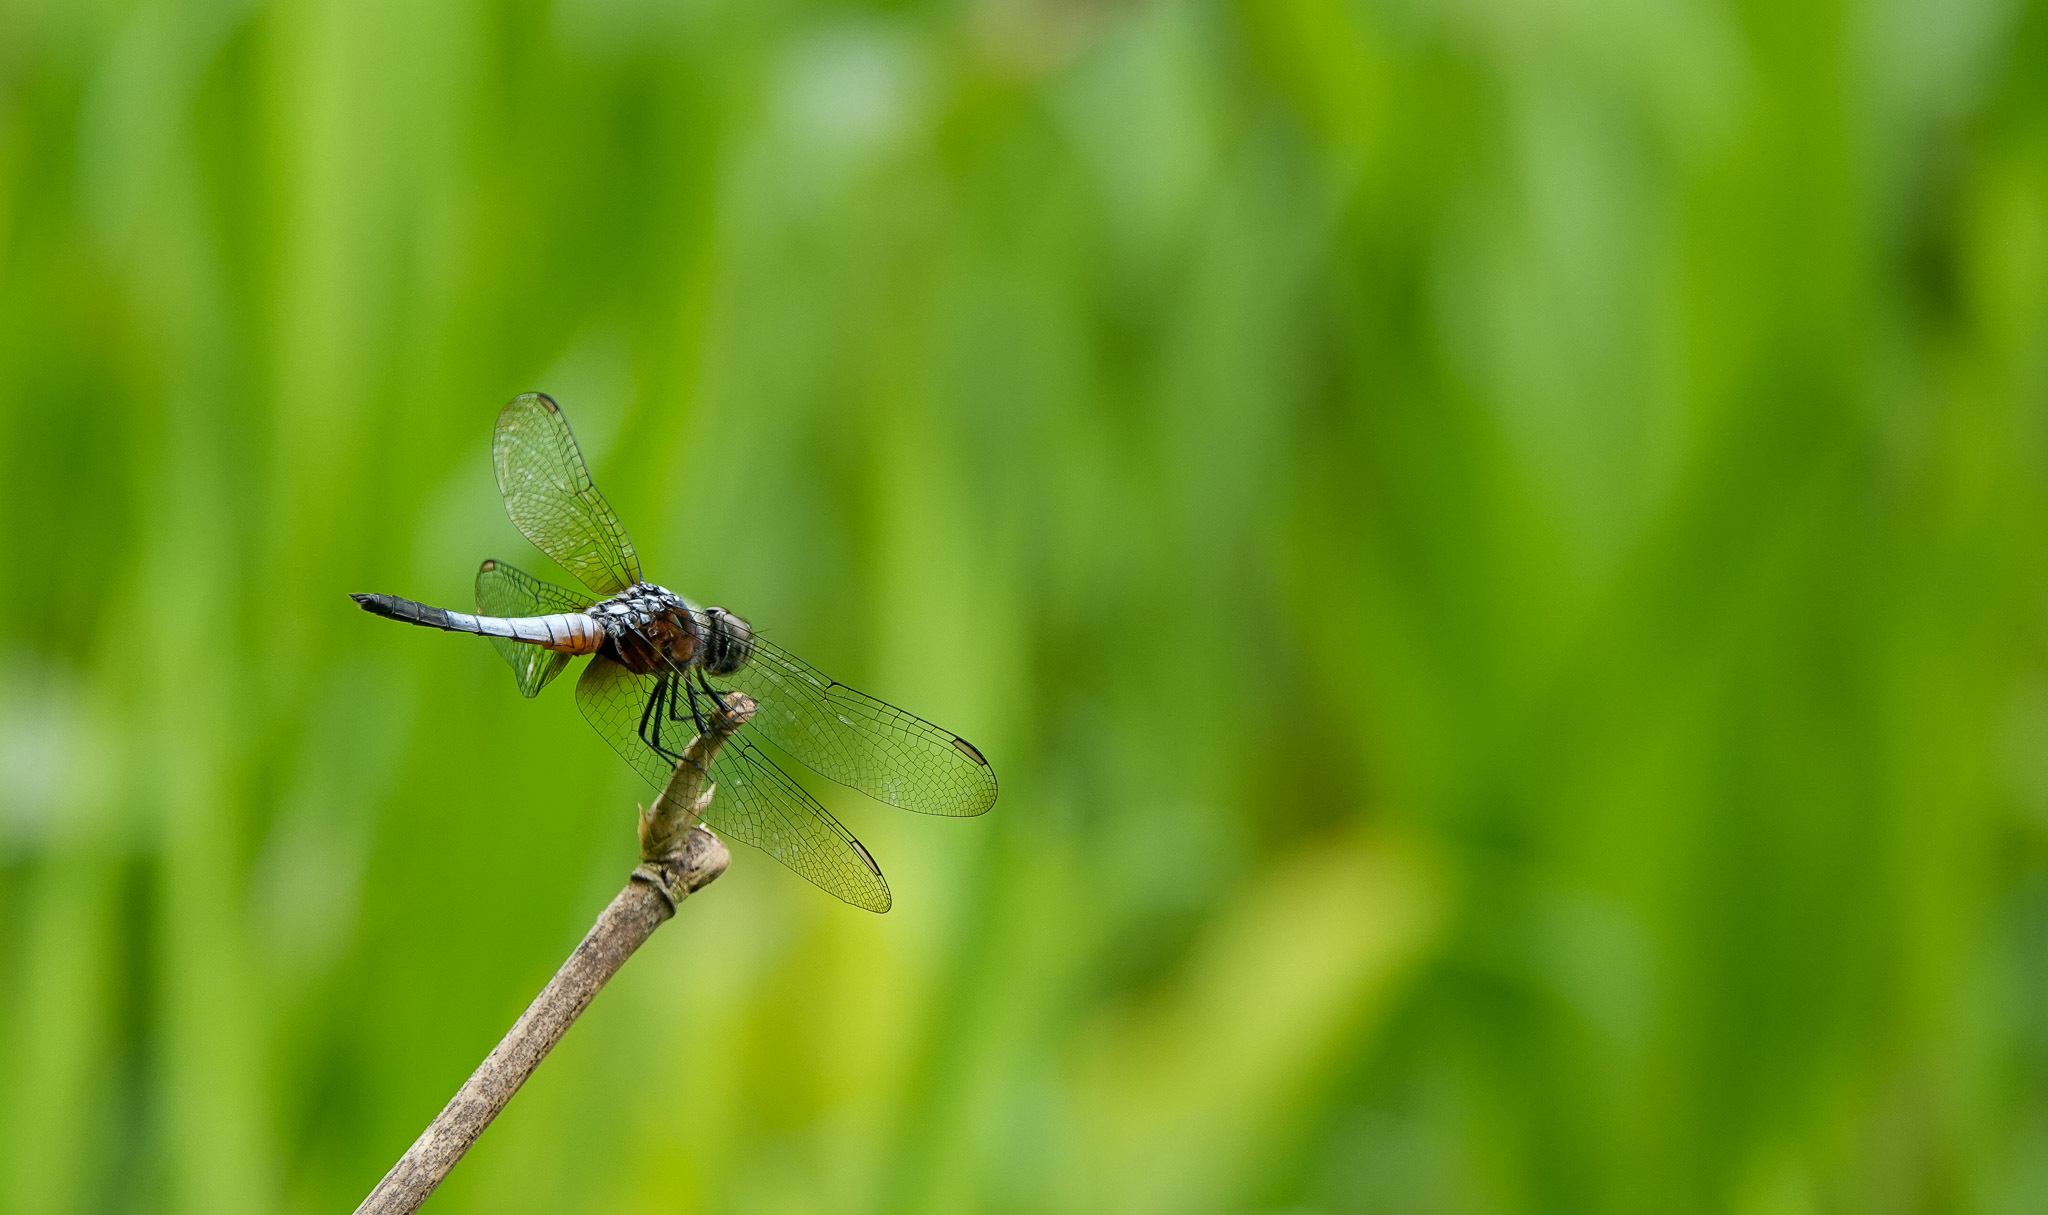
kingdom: Animalia
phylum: Arthropoda
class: Insecta
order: Odonata
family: Libellulidae
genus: Brachydiplax
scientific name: Brachydiplax chalybea
